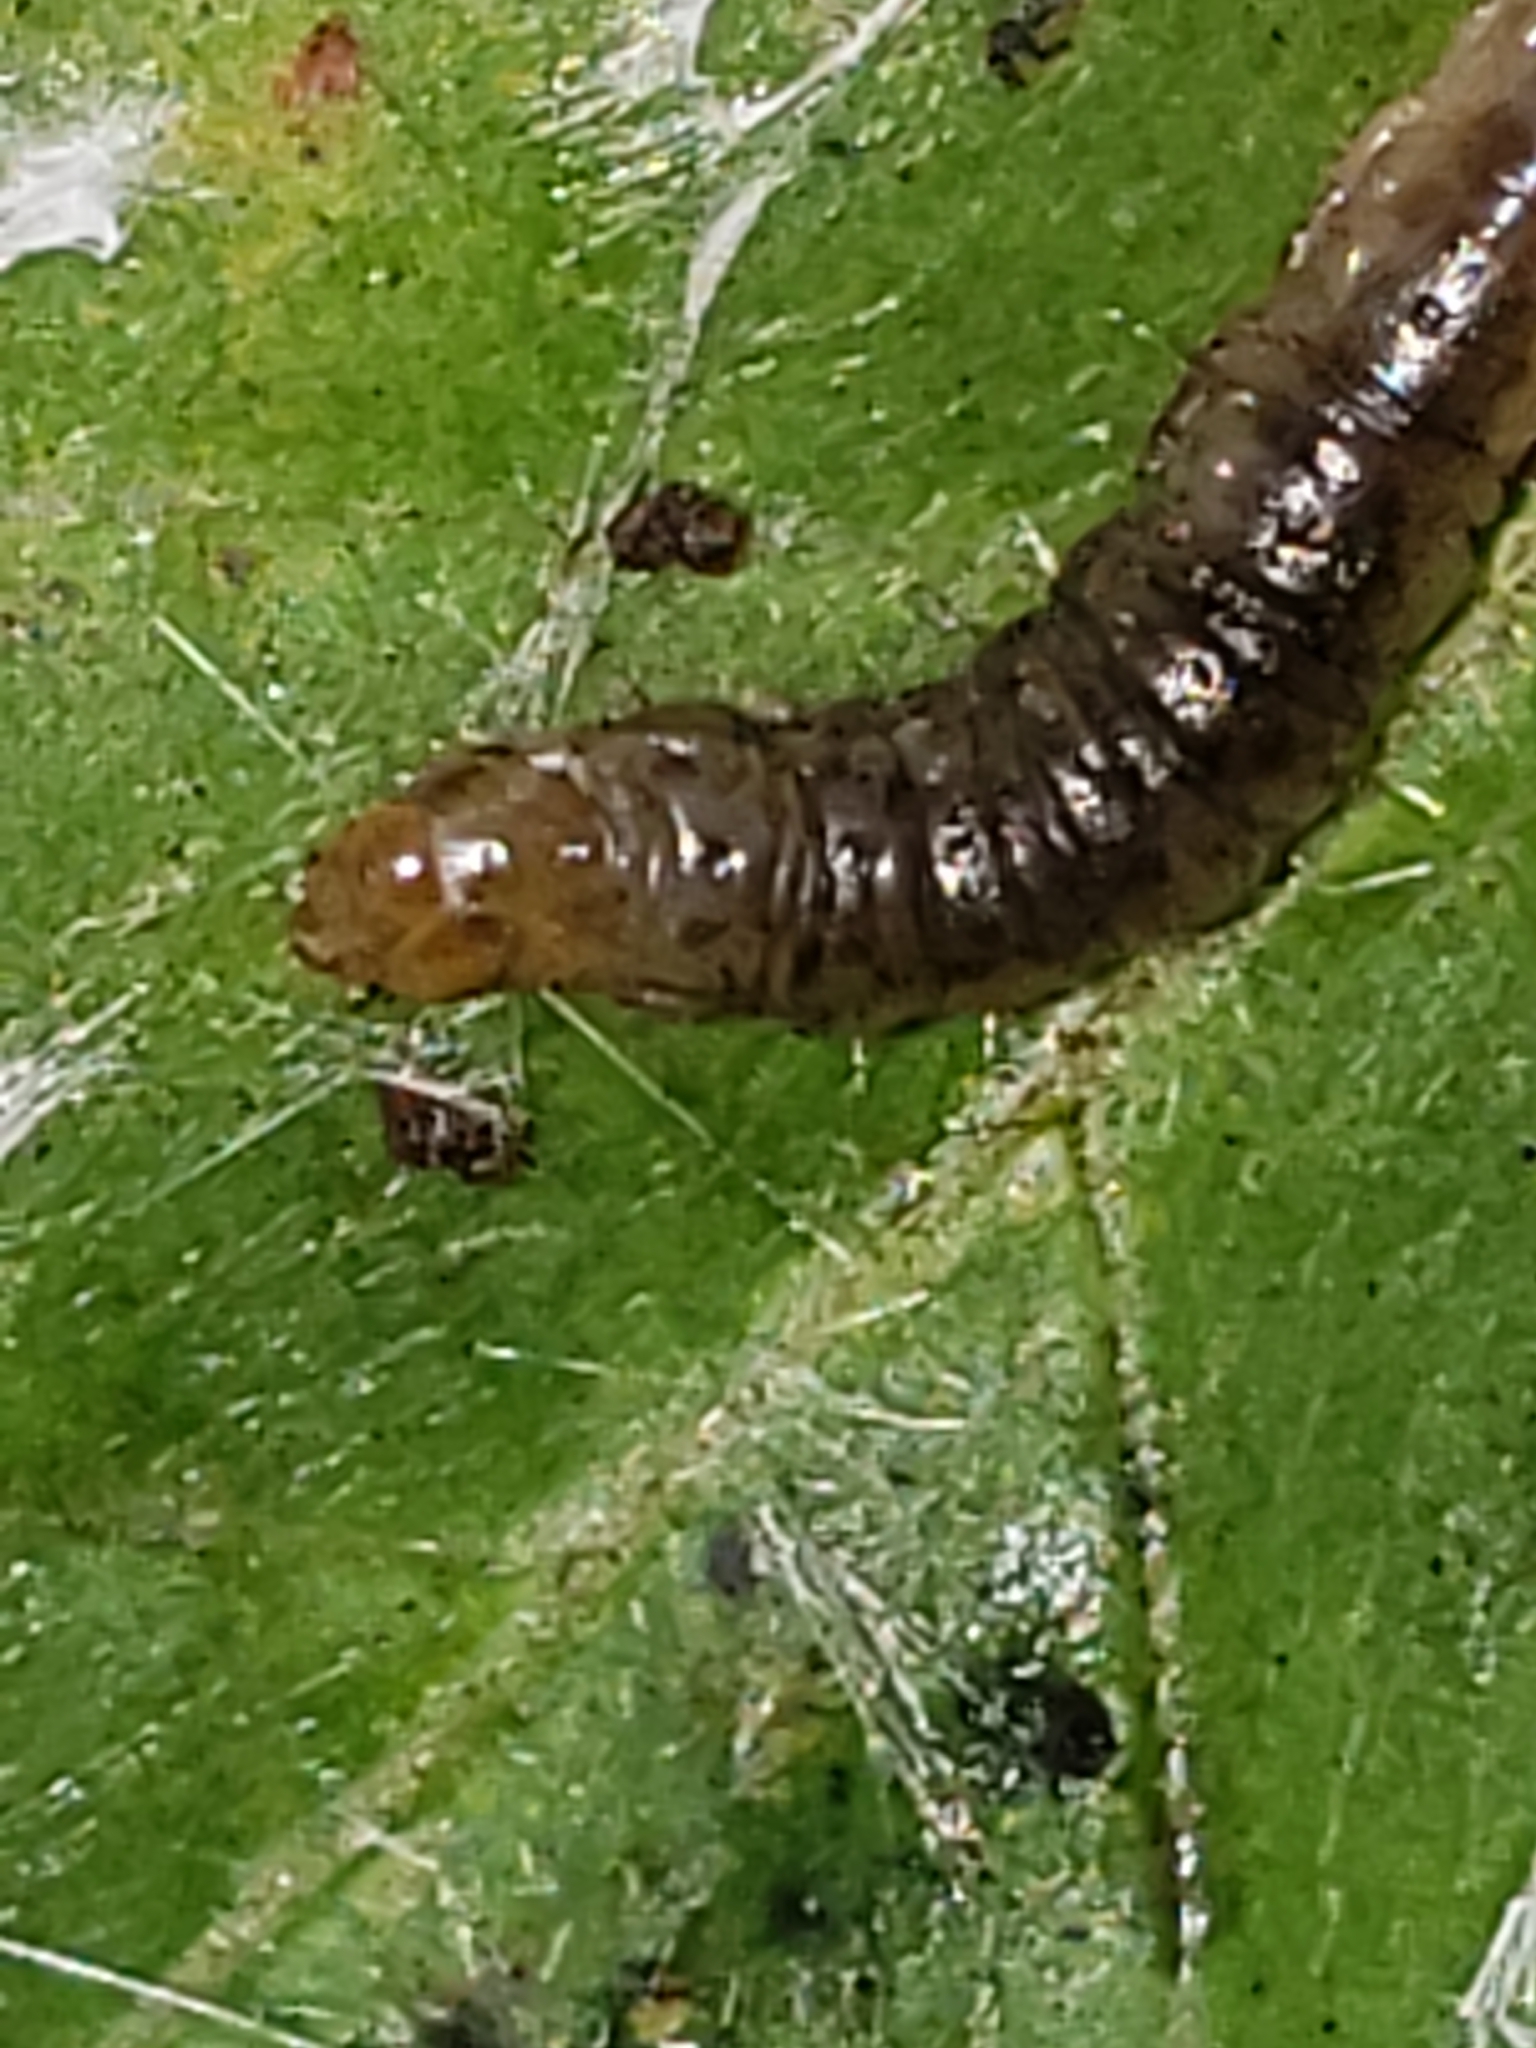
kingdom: Animalia
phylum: Arthropoda
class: Insecta
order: Lepidoptera
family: Tortricidae
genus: Episimus
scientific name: Episimus argutana
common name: Sumac leaftier moth
